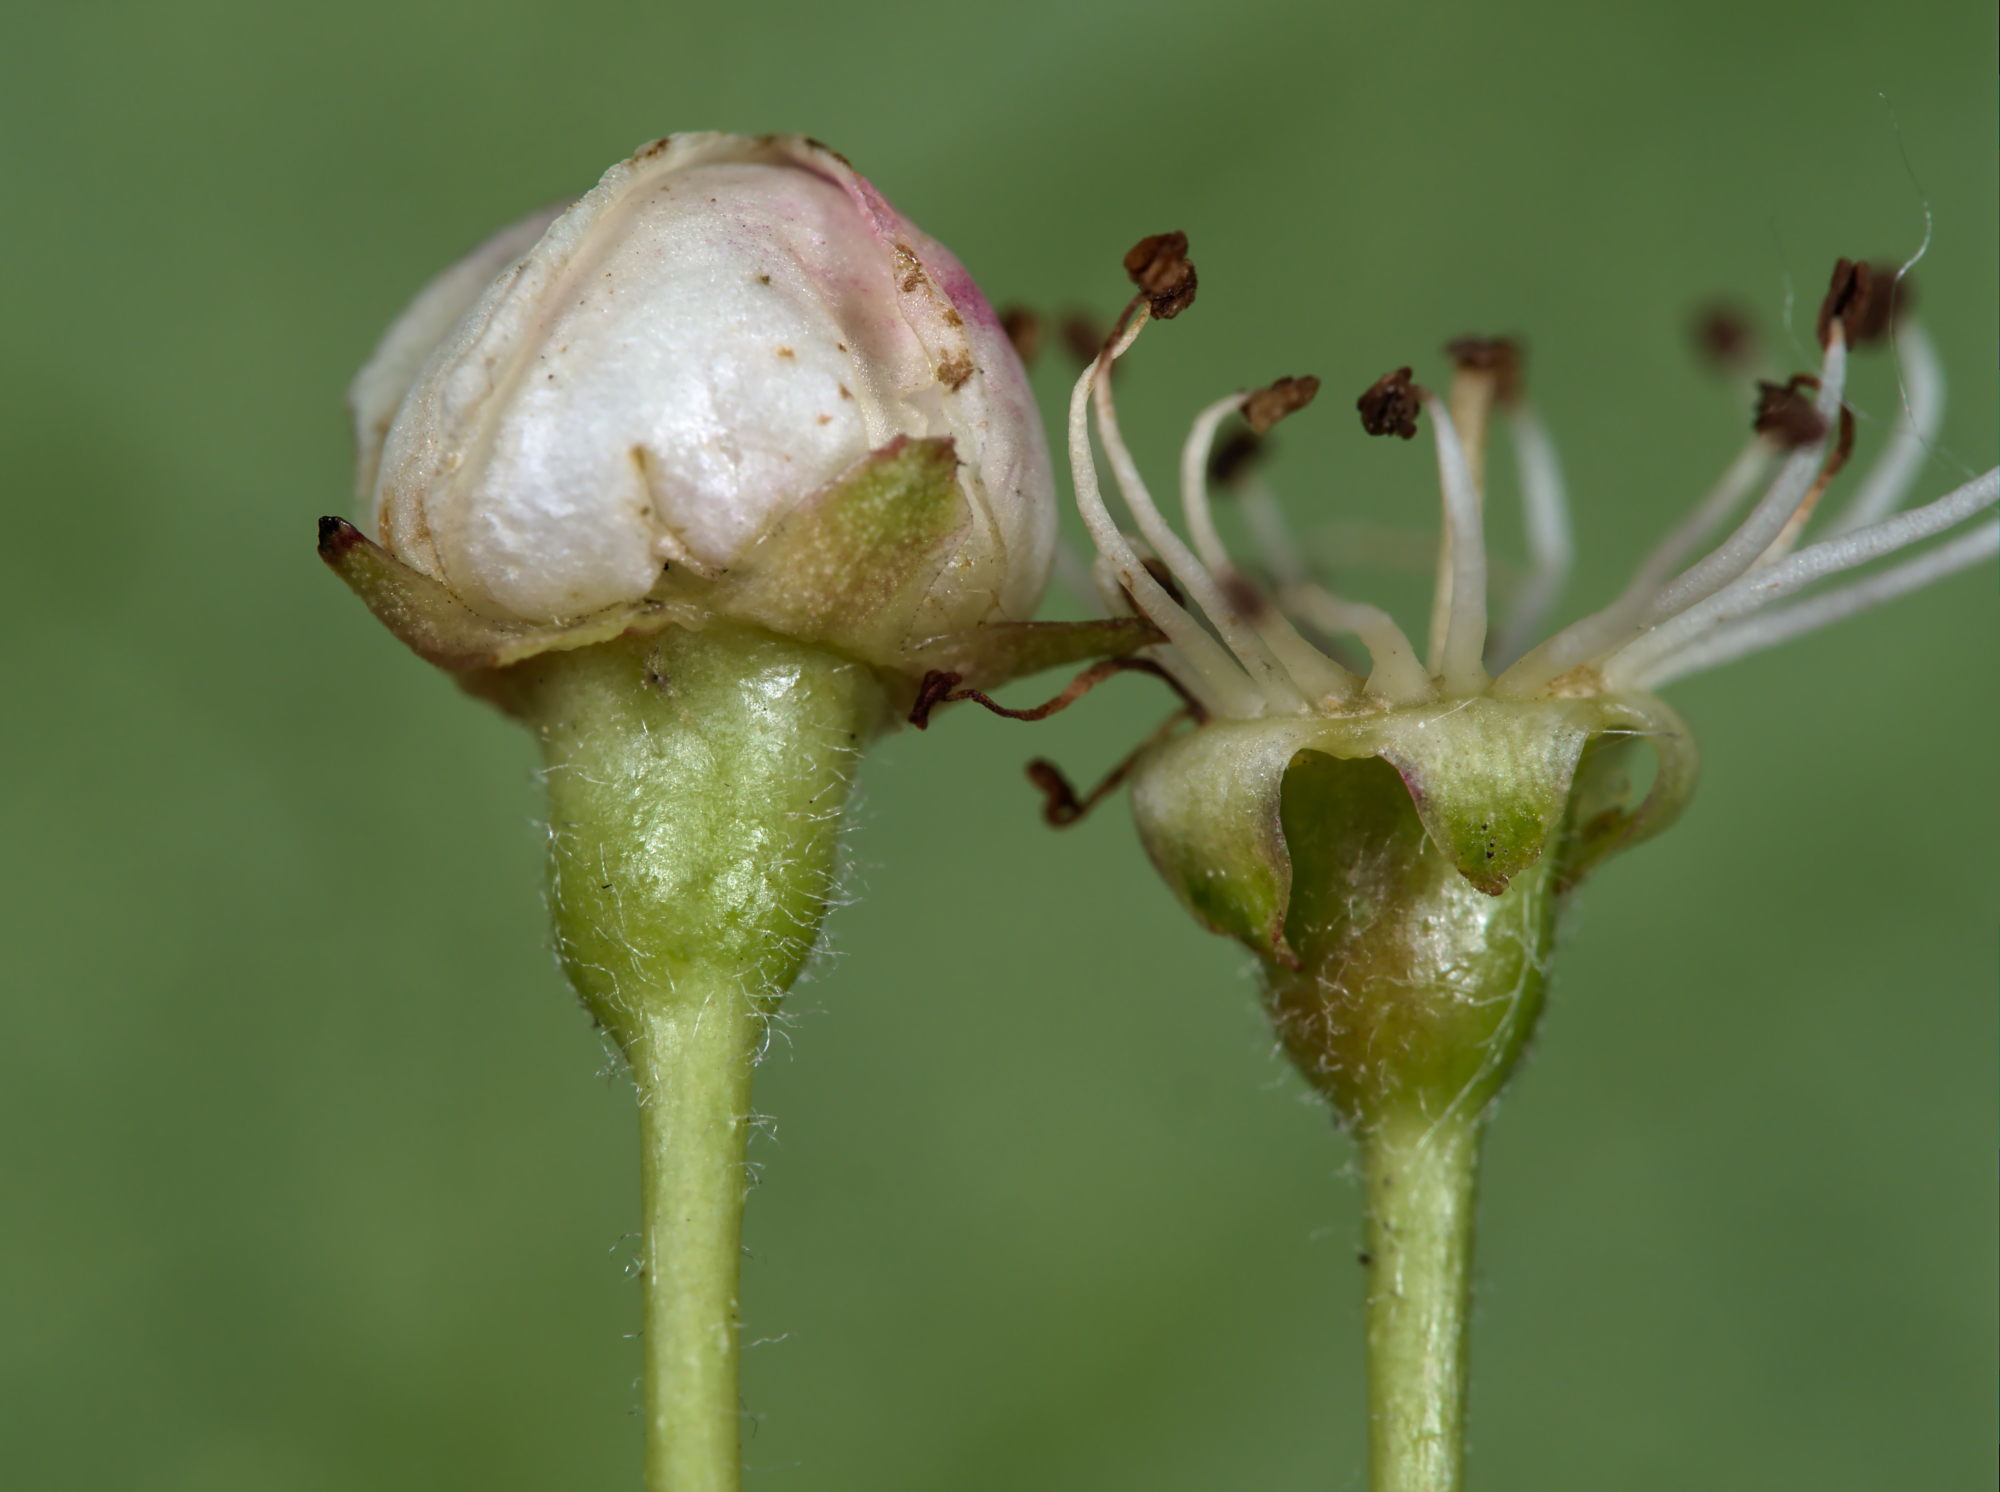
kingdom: Animalia
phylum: Arthropoda
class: Insecta
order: Diptera
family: Cecidomyiidae
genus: Contarinia
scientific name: Contarinia anthobia
